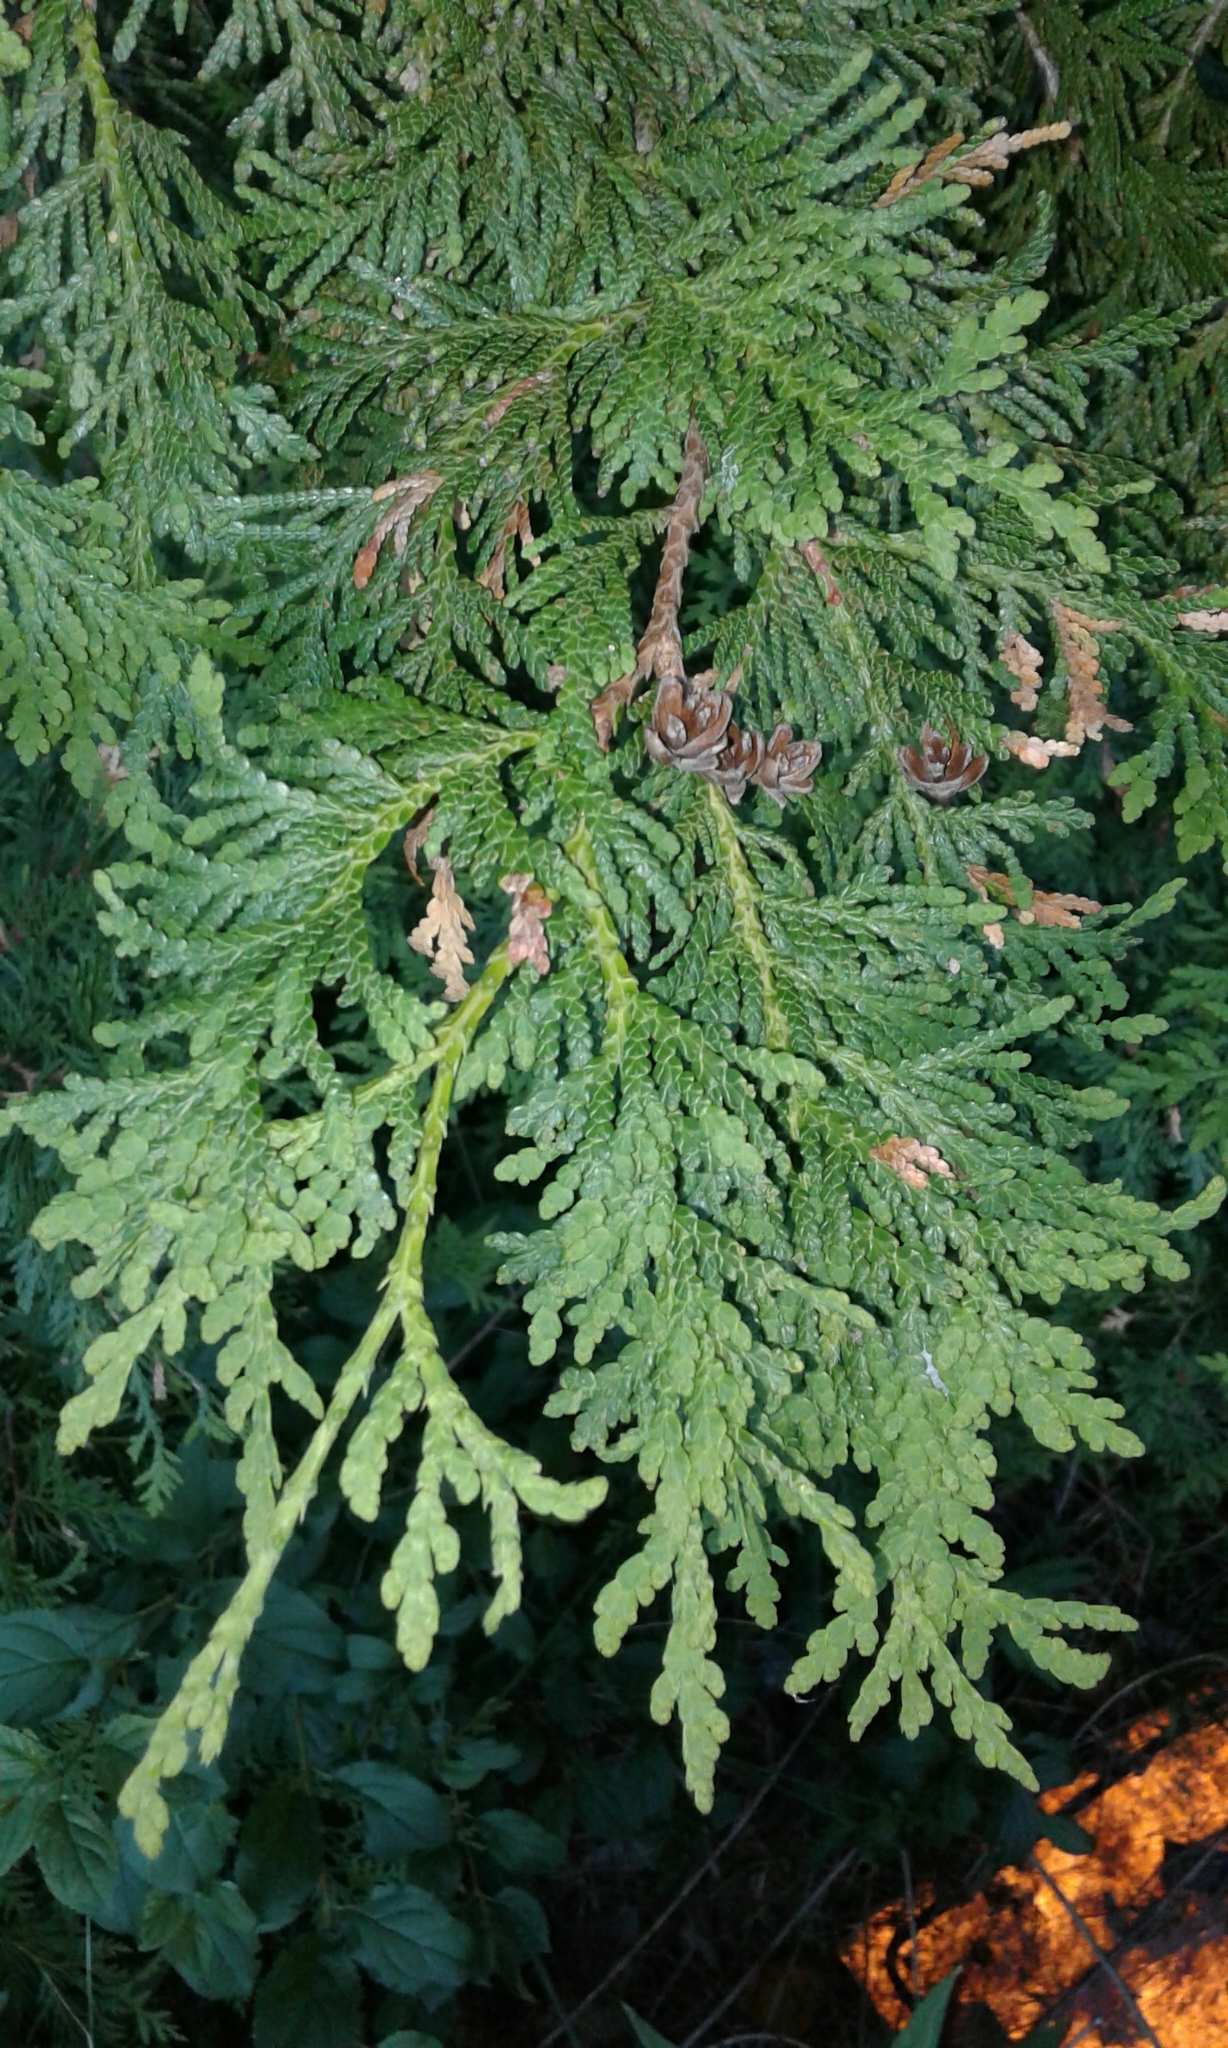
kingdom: Plantae
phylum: Tracheophyta
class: Pinopsida
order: Pinales
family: Cupressaceae
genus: Thuja
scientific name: Thuja occidentalis
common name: Northern white-cedar
